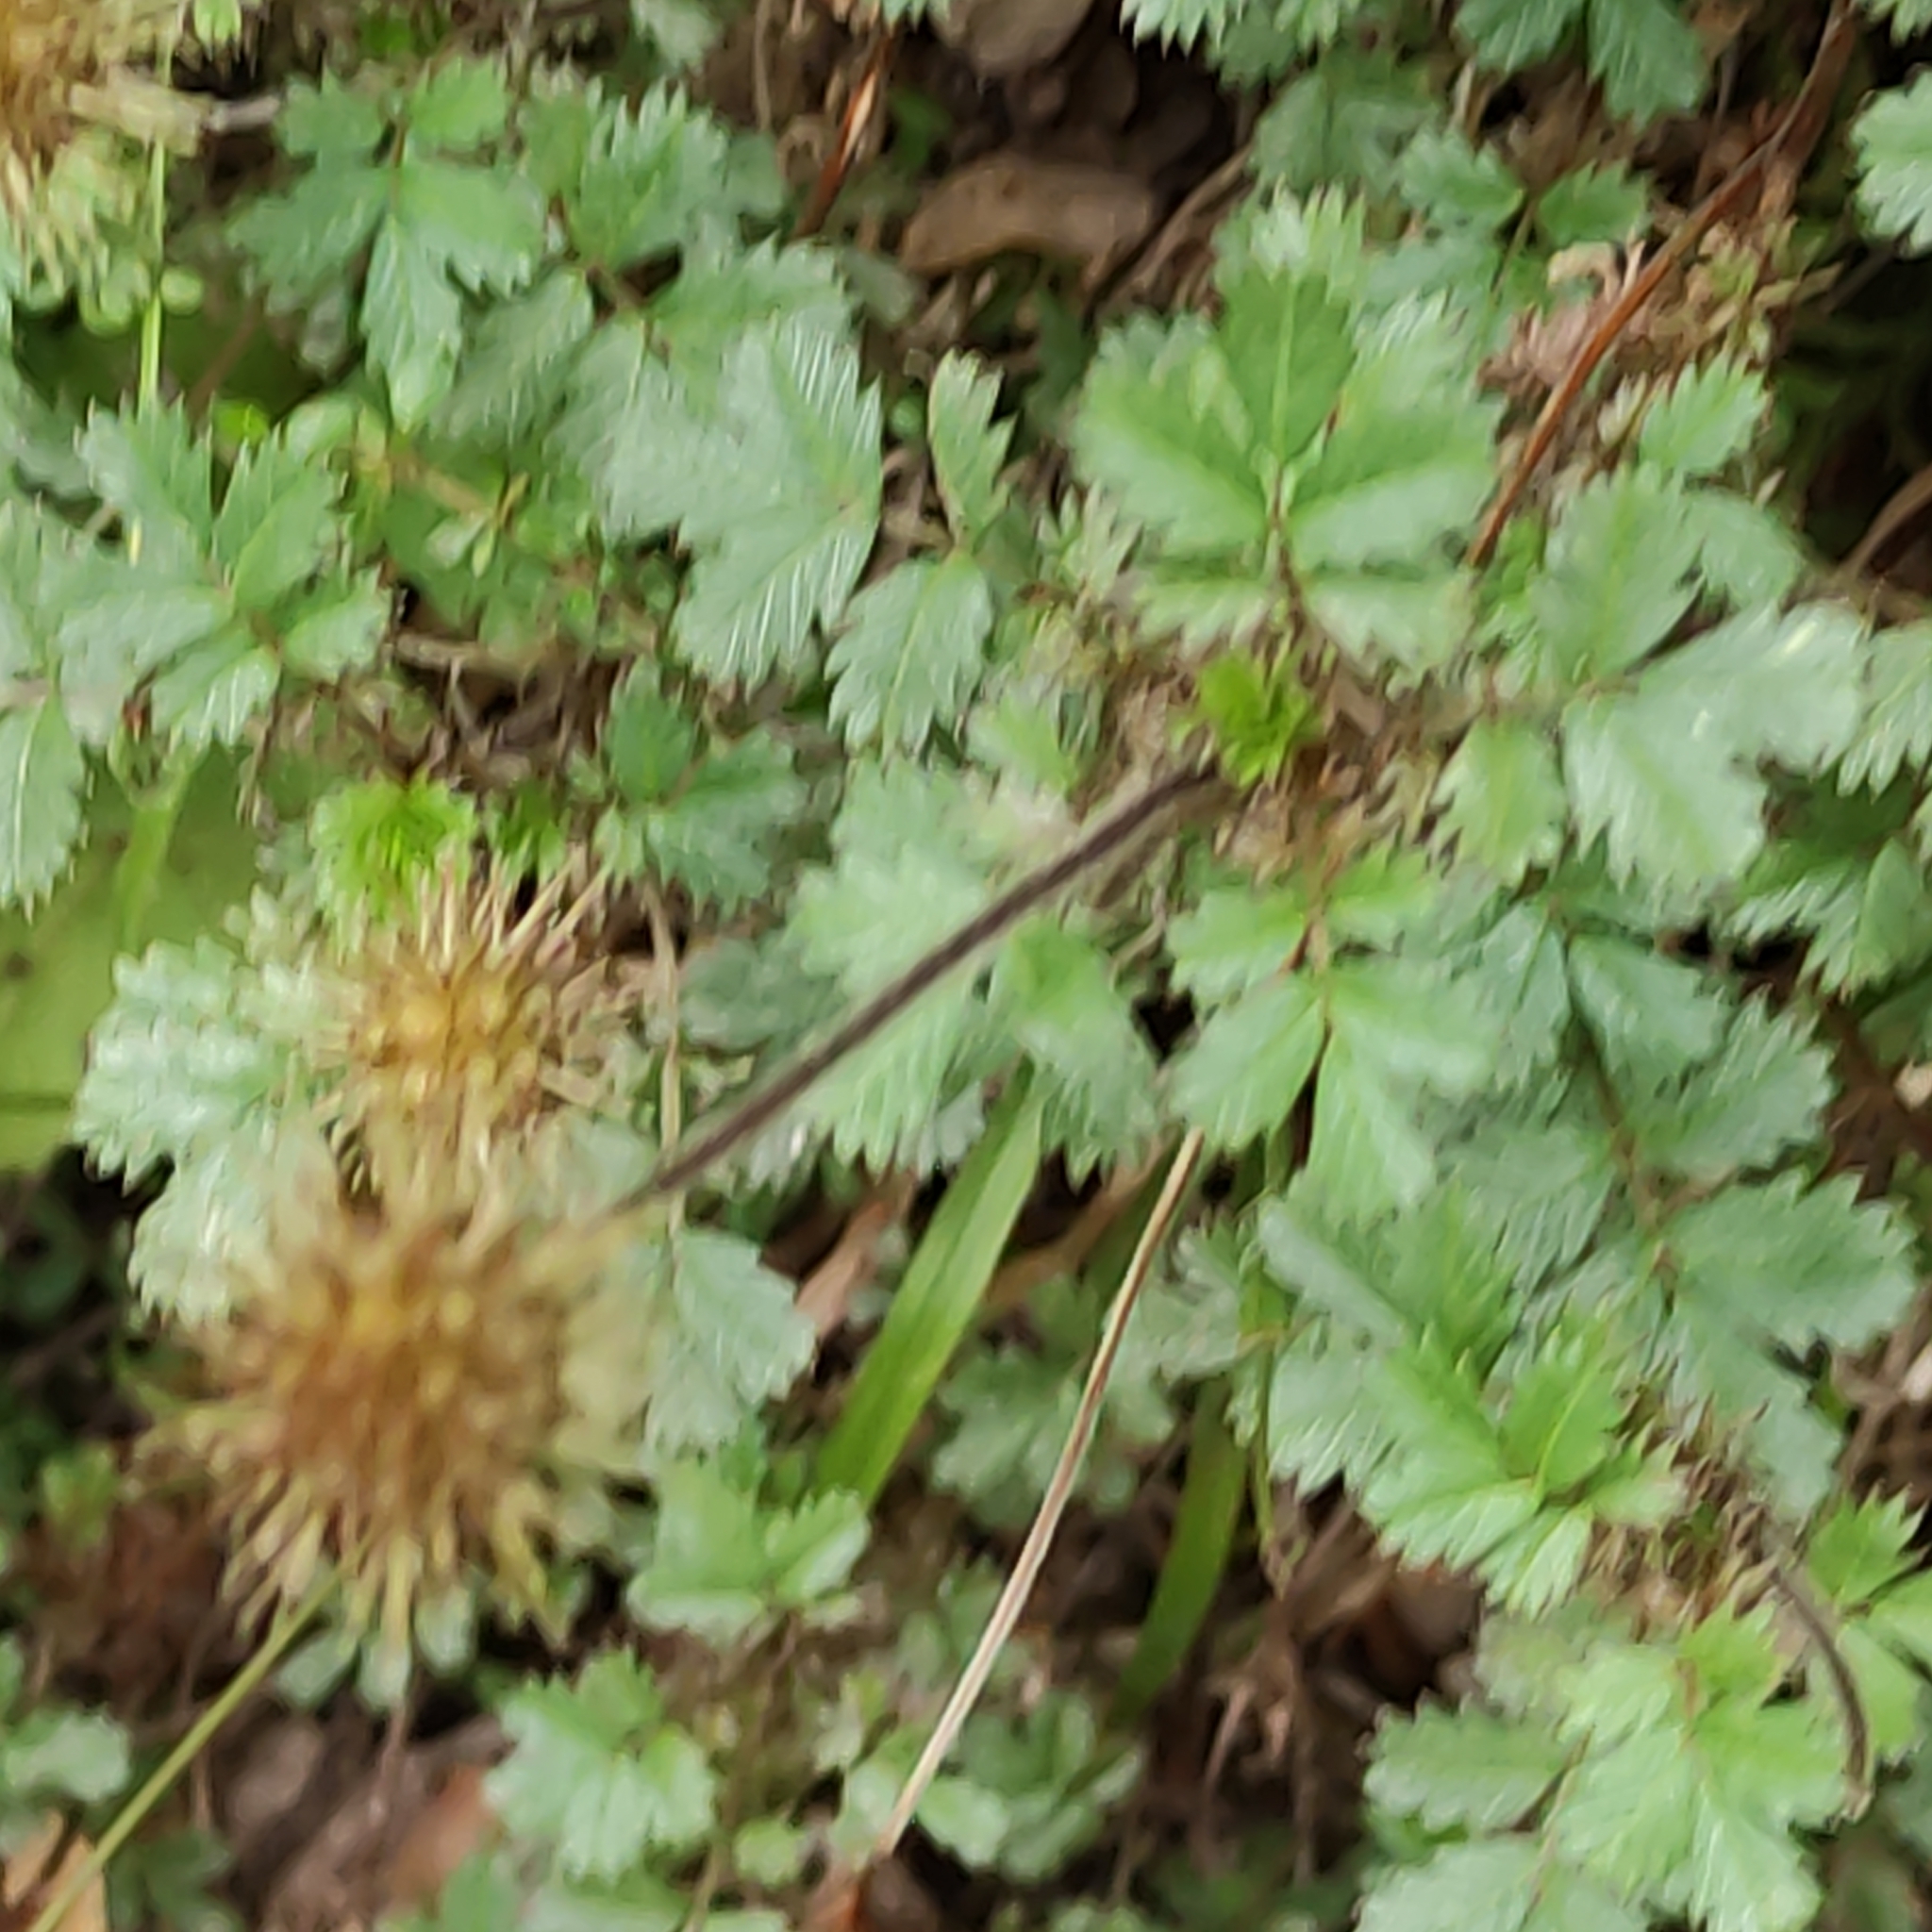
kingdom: Plantae
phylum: Tracheophyta
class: Magnoliopsida
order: Rosales
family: Rosaceae
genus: Acaena
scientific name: Acaena anserinifolia
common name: Bronze pirri-pirri-bur
